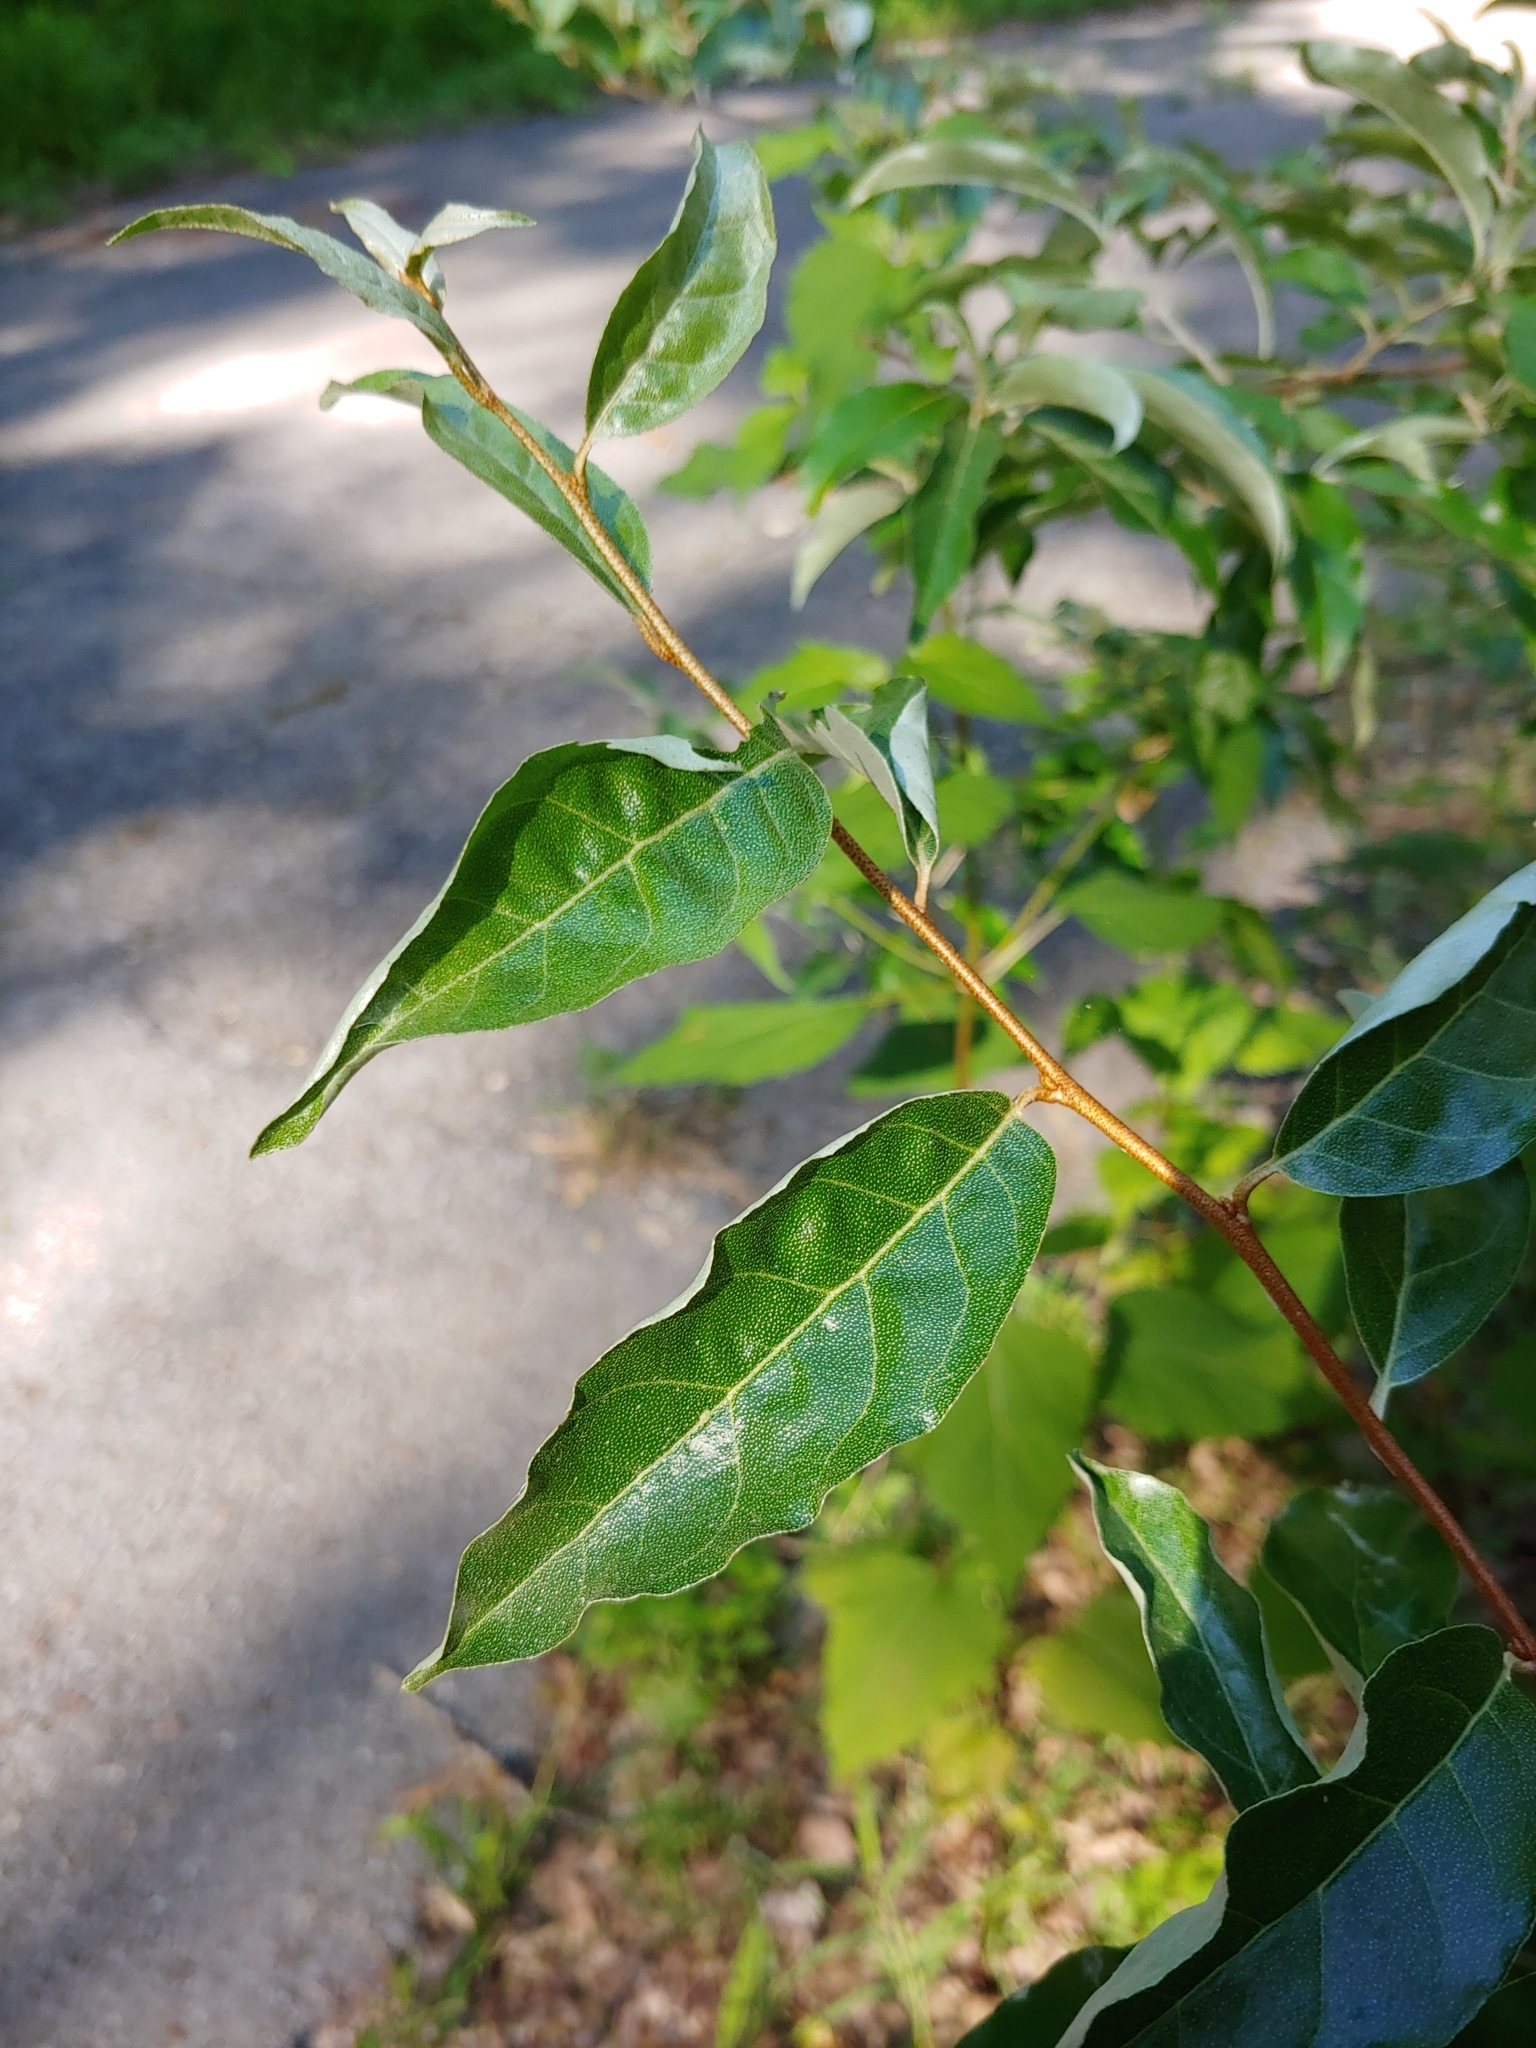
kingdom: Plantae
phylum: Tracheophyta
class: Magnoliopsida
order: Rosales
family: Elaeagnaceae
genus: Elaeagnus
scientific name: Elaeagnus umbellata
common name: Autumn olive
